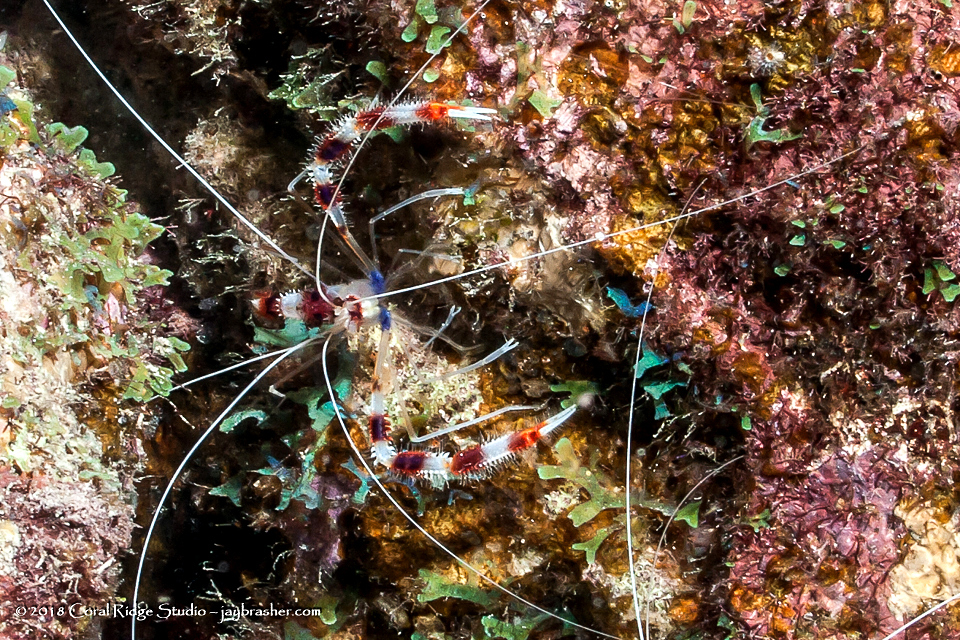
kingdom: Animalia
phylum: Arthropoda
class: Malacostraca
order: Decapoda
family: Stenopodidae
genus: Stenopus
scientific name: Stenopus hispidus
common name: Banded coral shrimp
